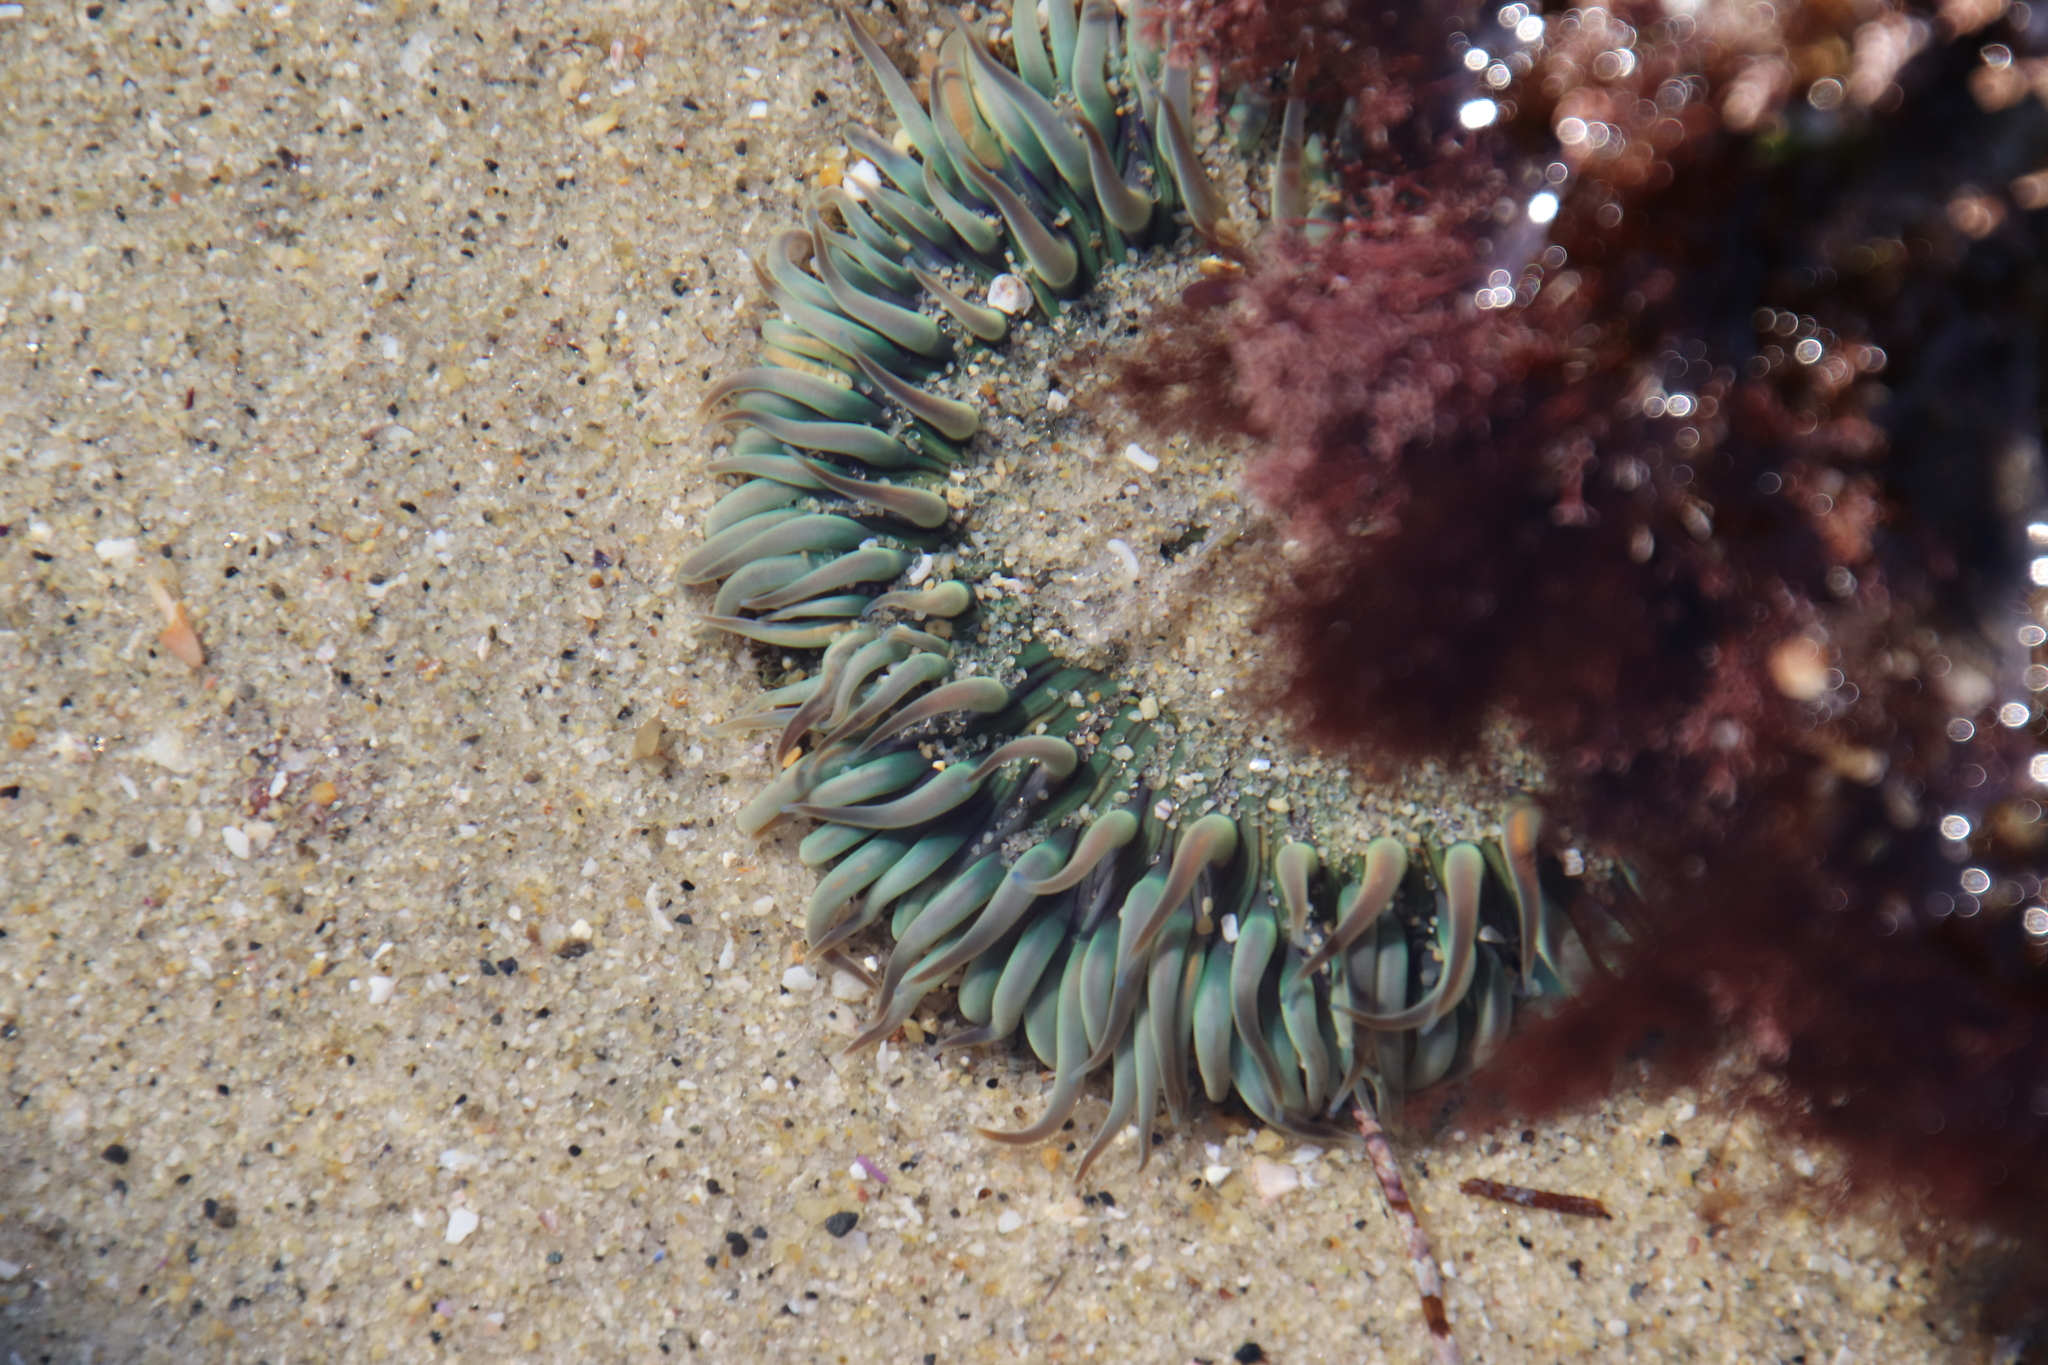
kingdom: Animalia
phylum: Cnidaria
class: Anthozoa
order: Actiniaria
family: Actiniidae
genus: Anthopleura
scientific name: Anthopleura sola
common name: Sun anemone
